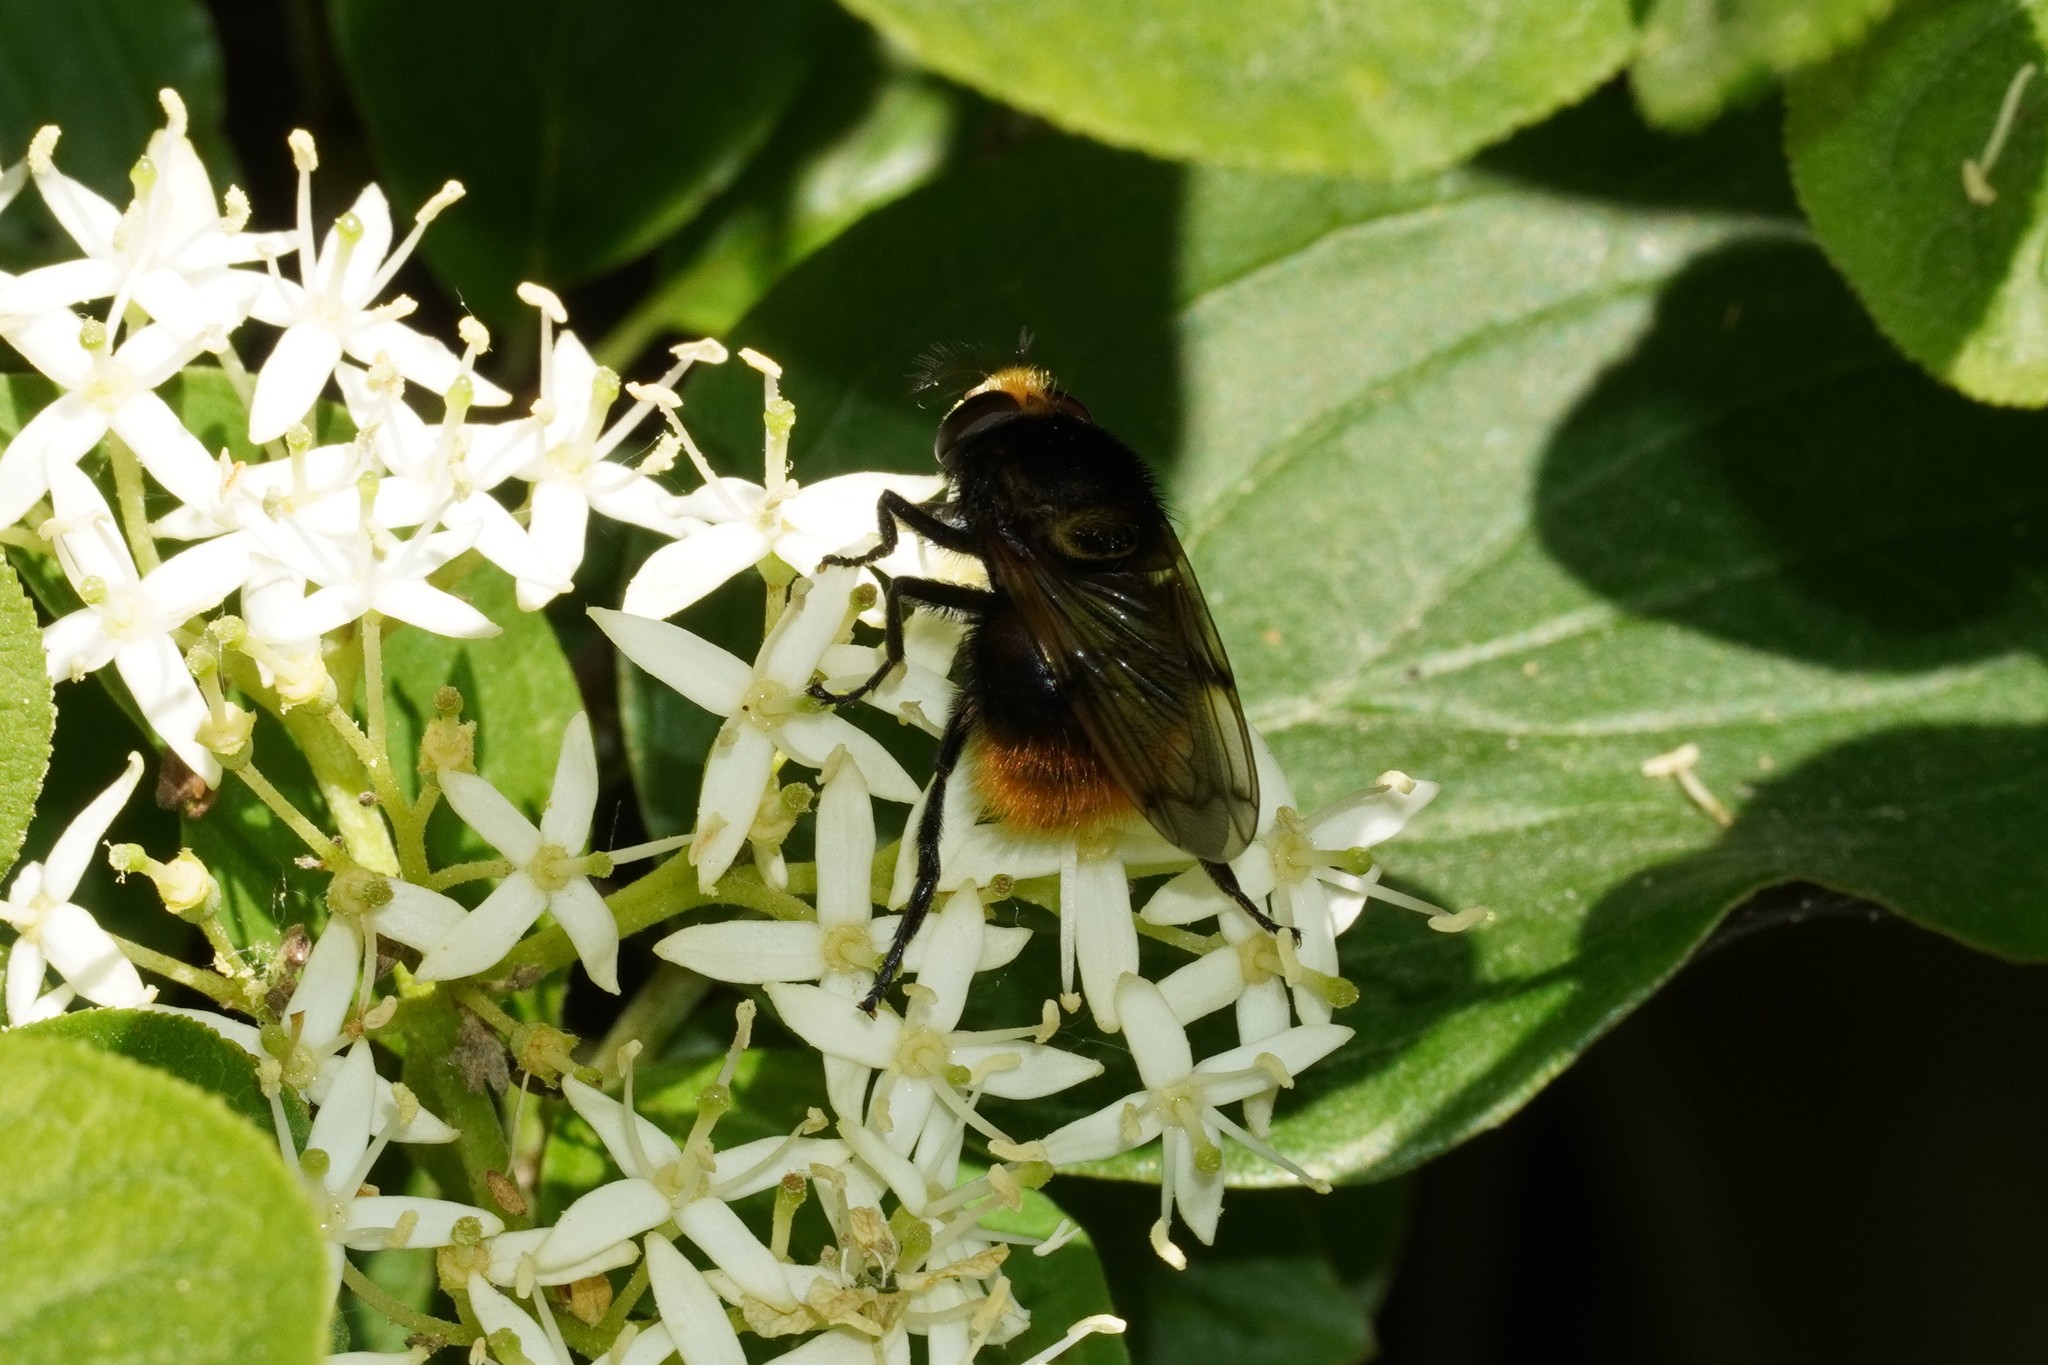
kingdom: Animalia
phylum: Arthropoda
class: Insecta
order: Diptera
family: Syrphidae
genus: Volucella
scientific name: Volucella bombylans
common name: Bumble bee hover fly
